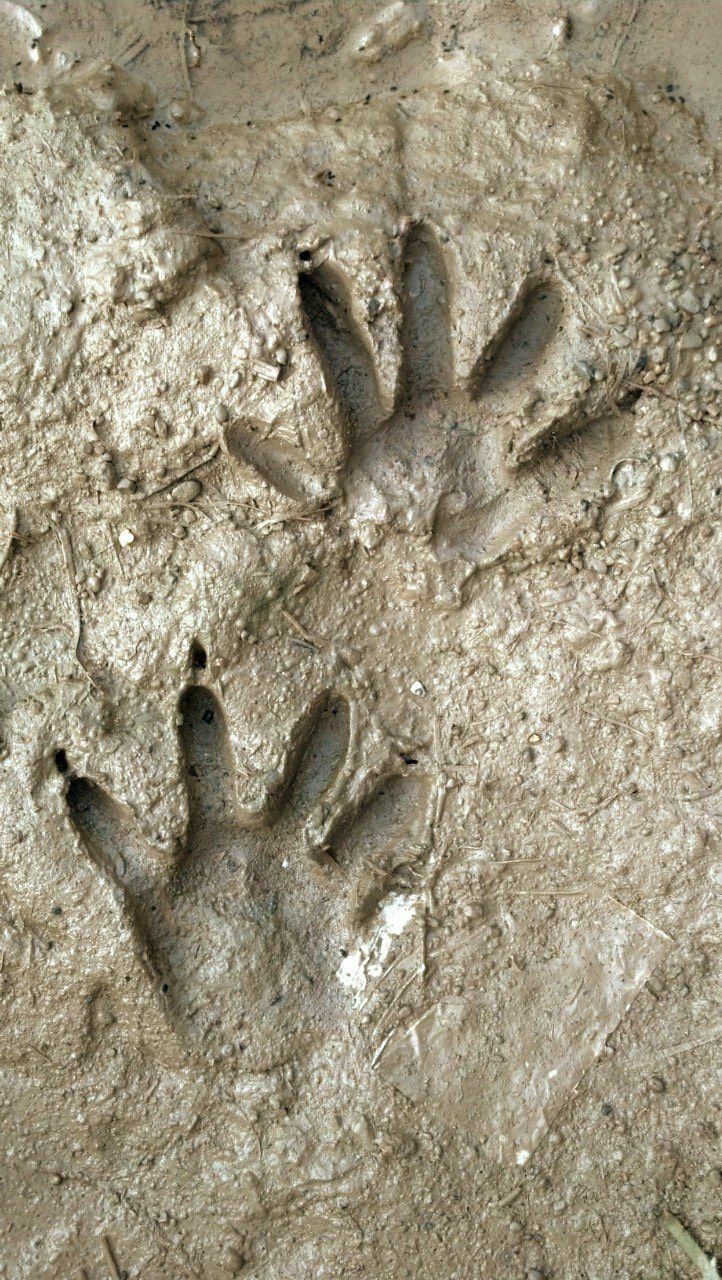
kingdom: Animalia
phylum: Chordata
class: Mammalia
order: Carnivora
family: Procyonidae
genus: Procyon
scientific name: Procyon lotor
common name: Raccoon
